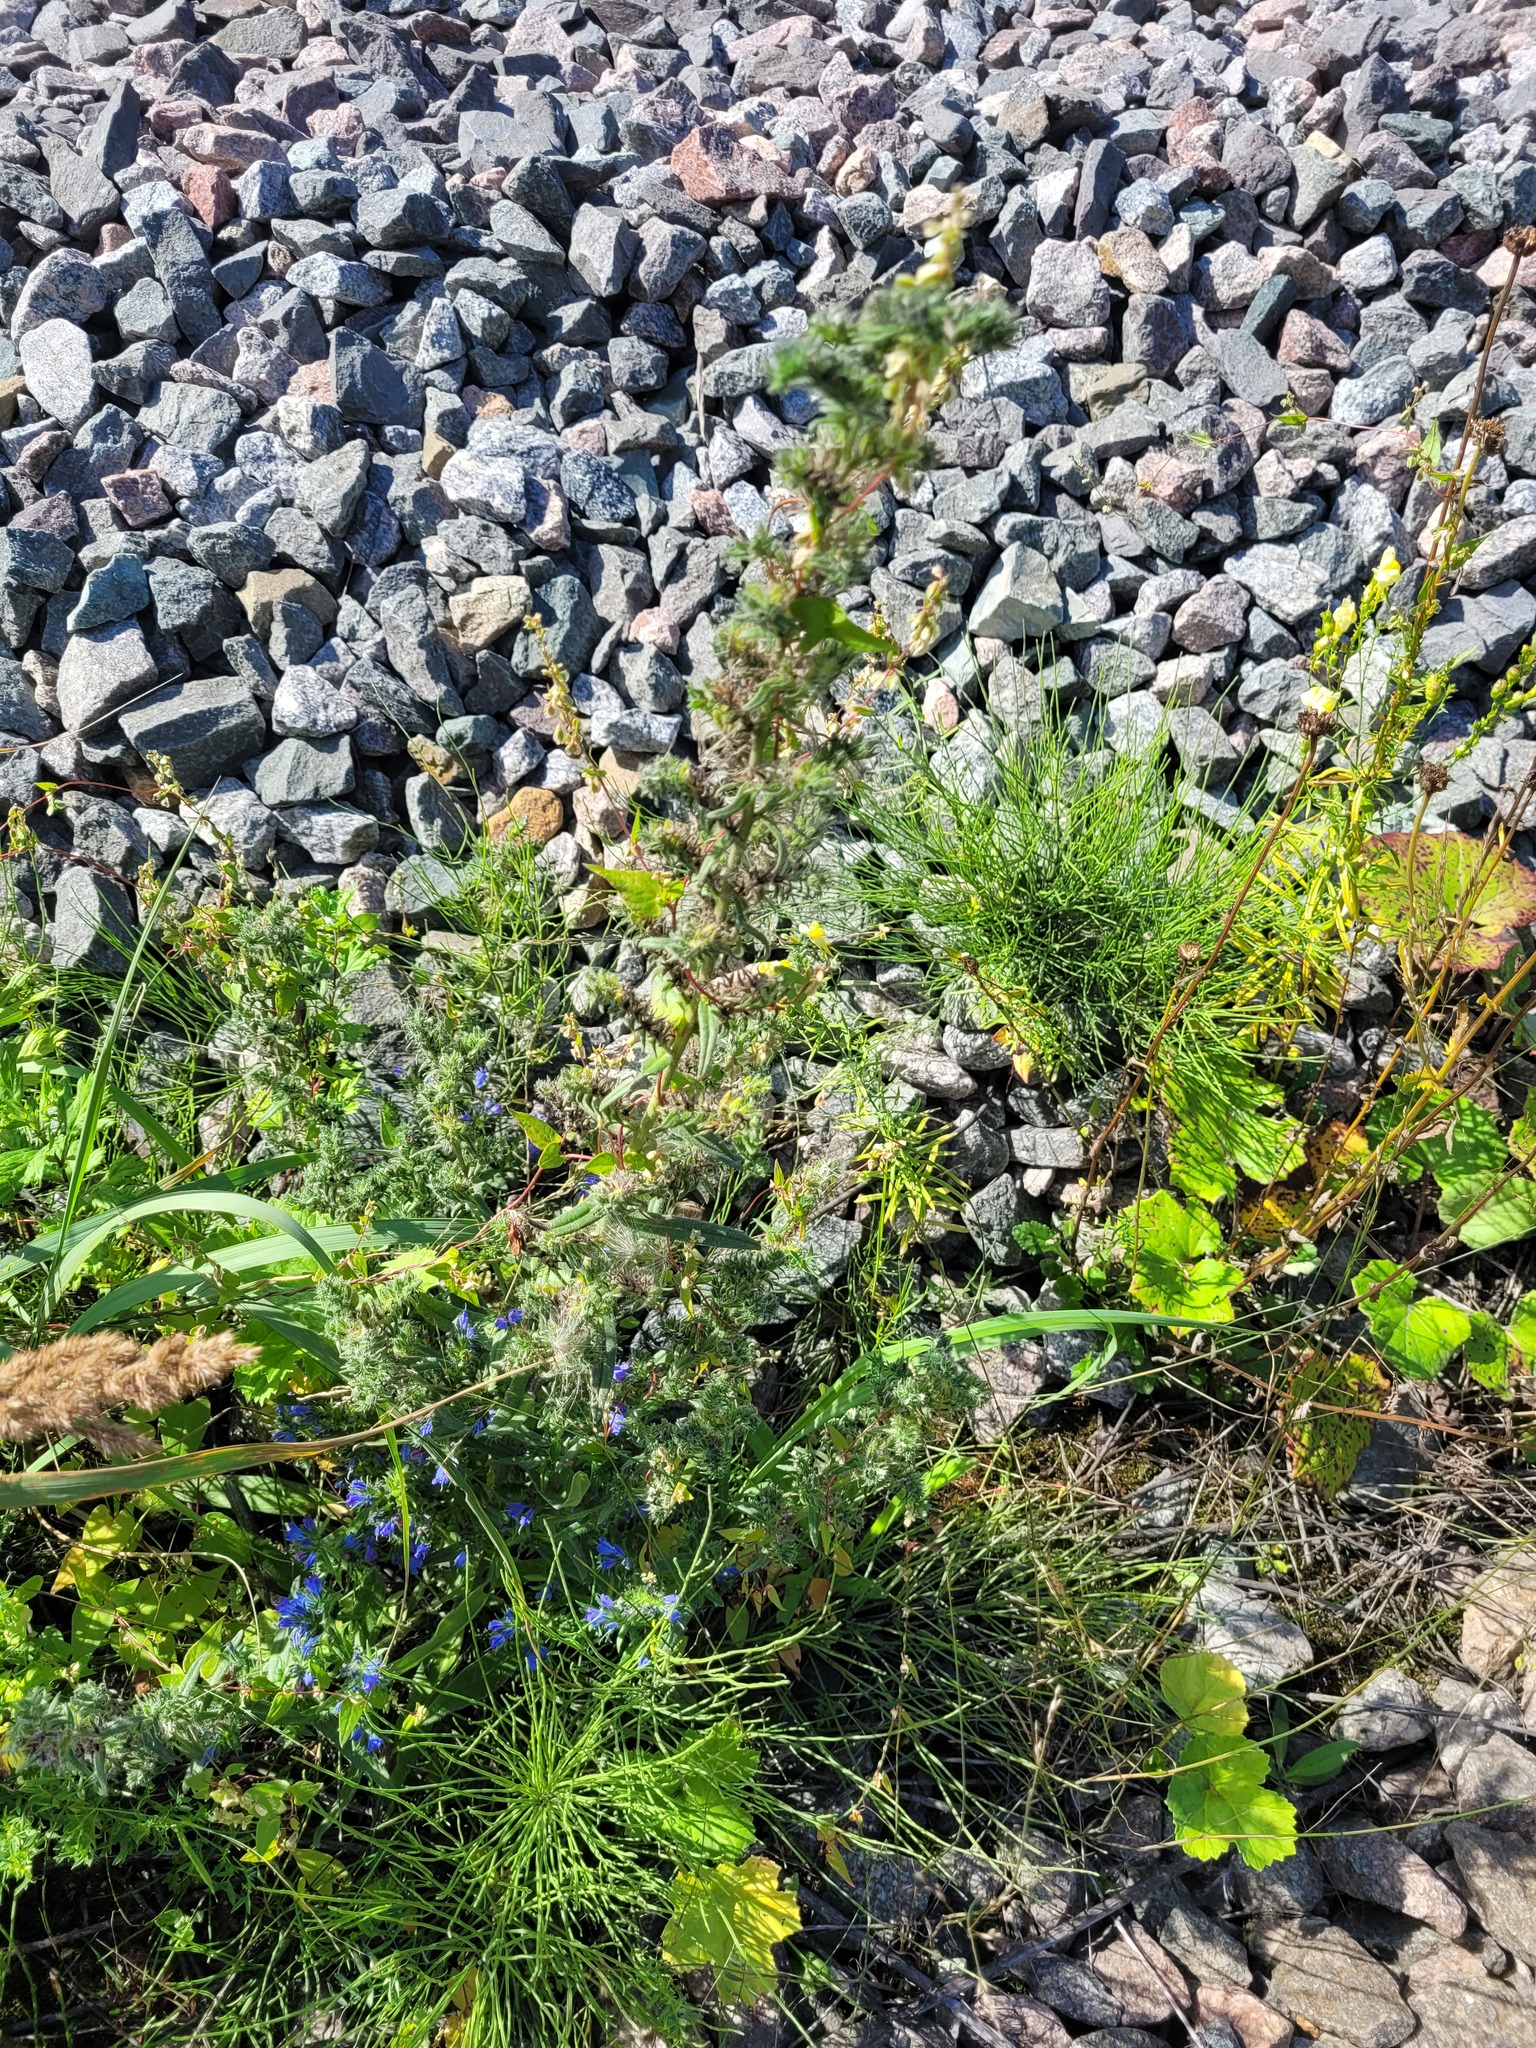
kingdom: Plantae
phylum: Tracheophyta
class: Magnoliopsida
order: Boraginales
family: Boraginaceae
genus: Echium
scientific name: Echium vulgare
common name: Common viper's bugloss
